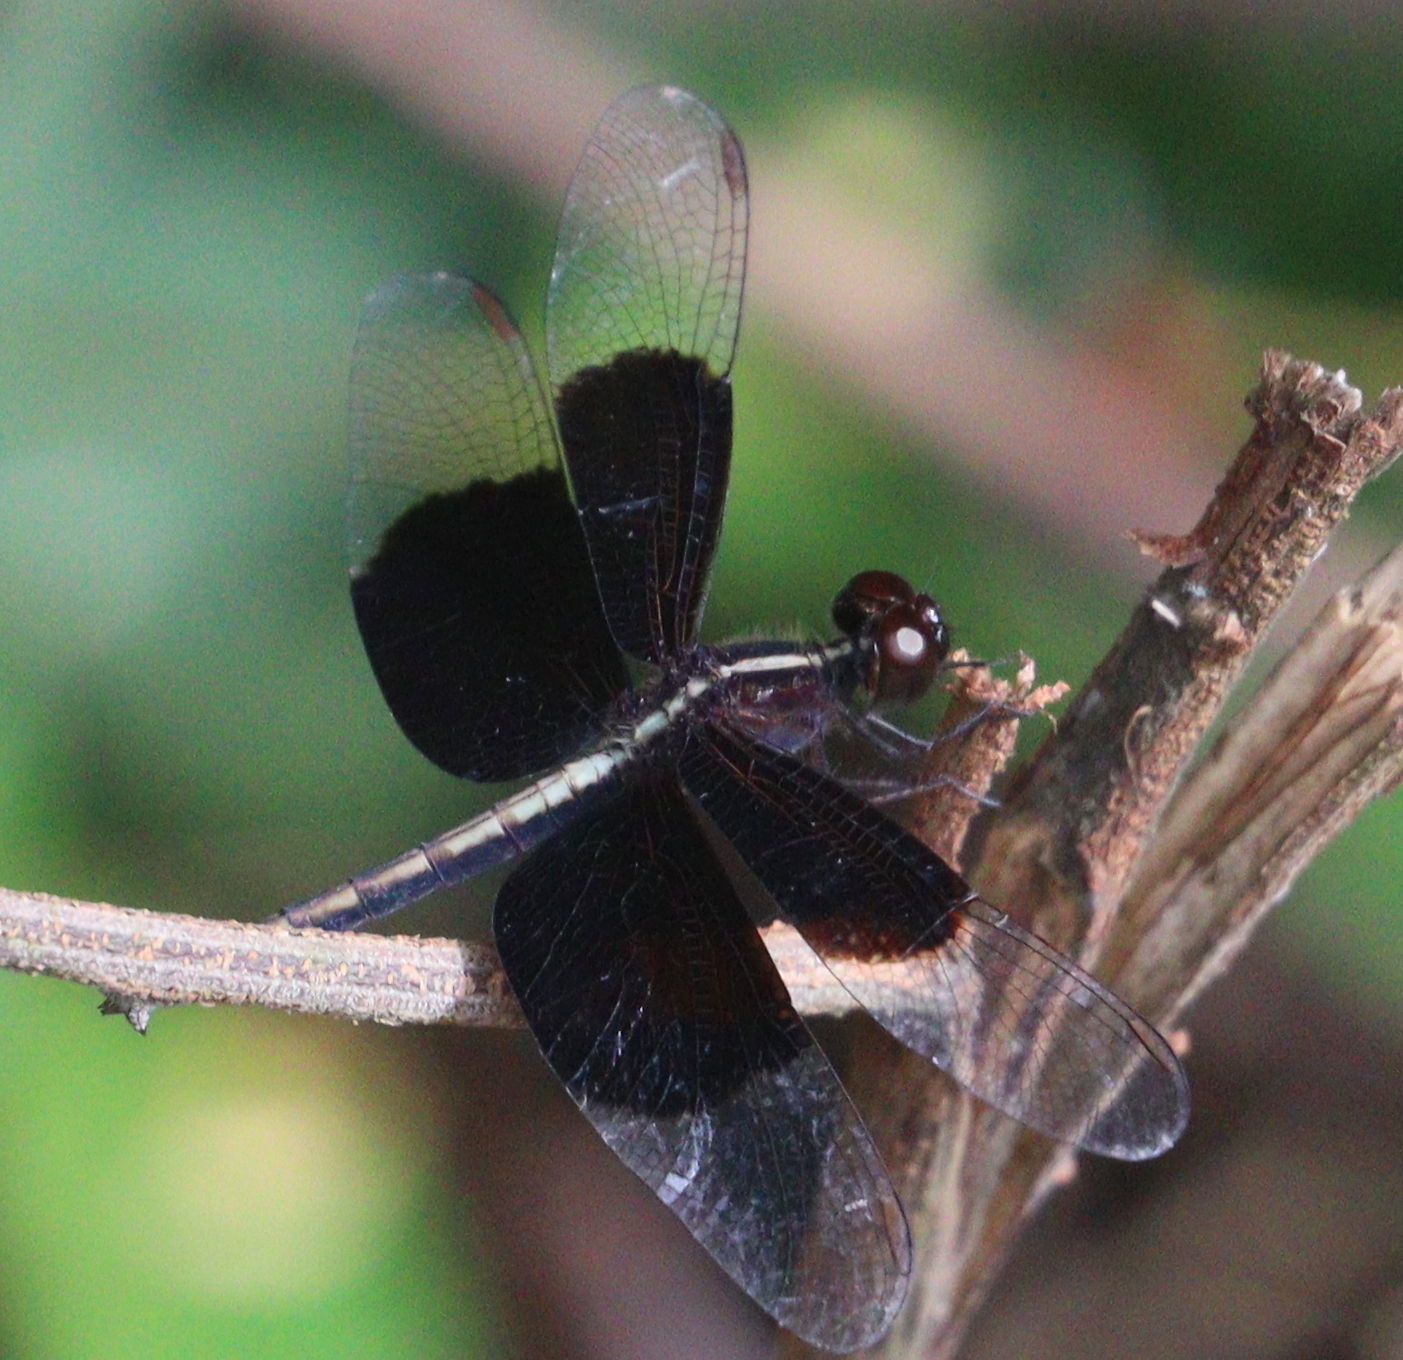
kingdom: Animalia
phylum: Arthropoda
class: Insecta
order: Odonata
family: Libellulidae
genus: Neurothemis
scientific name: Neurothemis tullia
